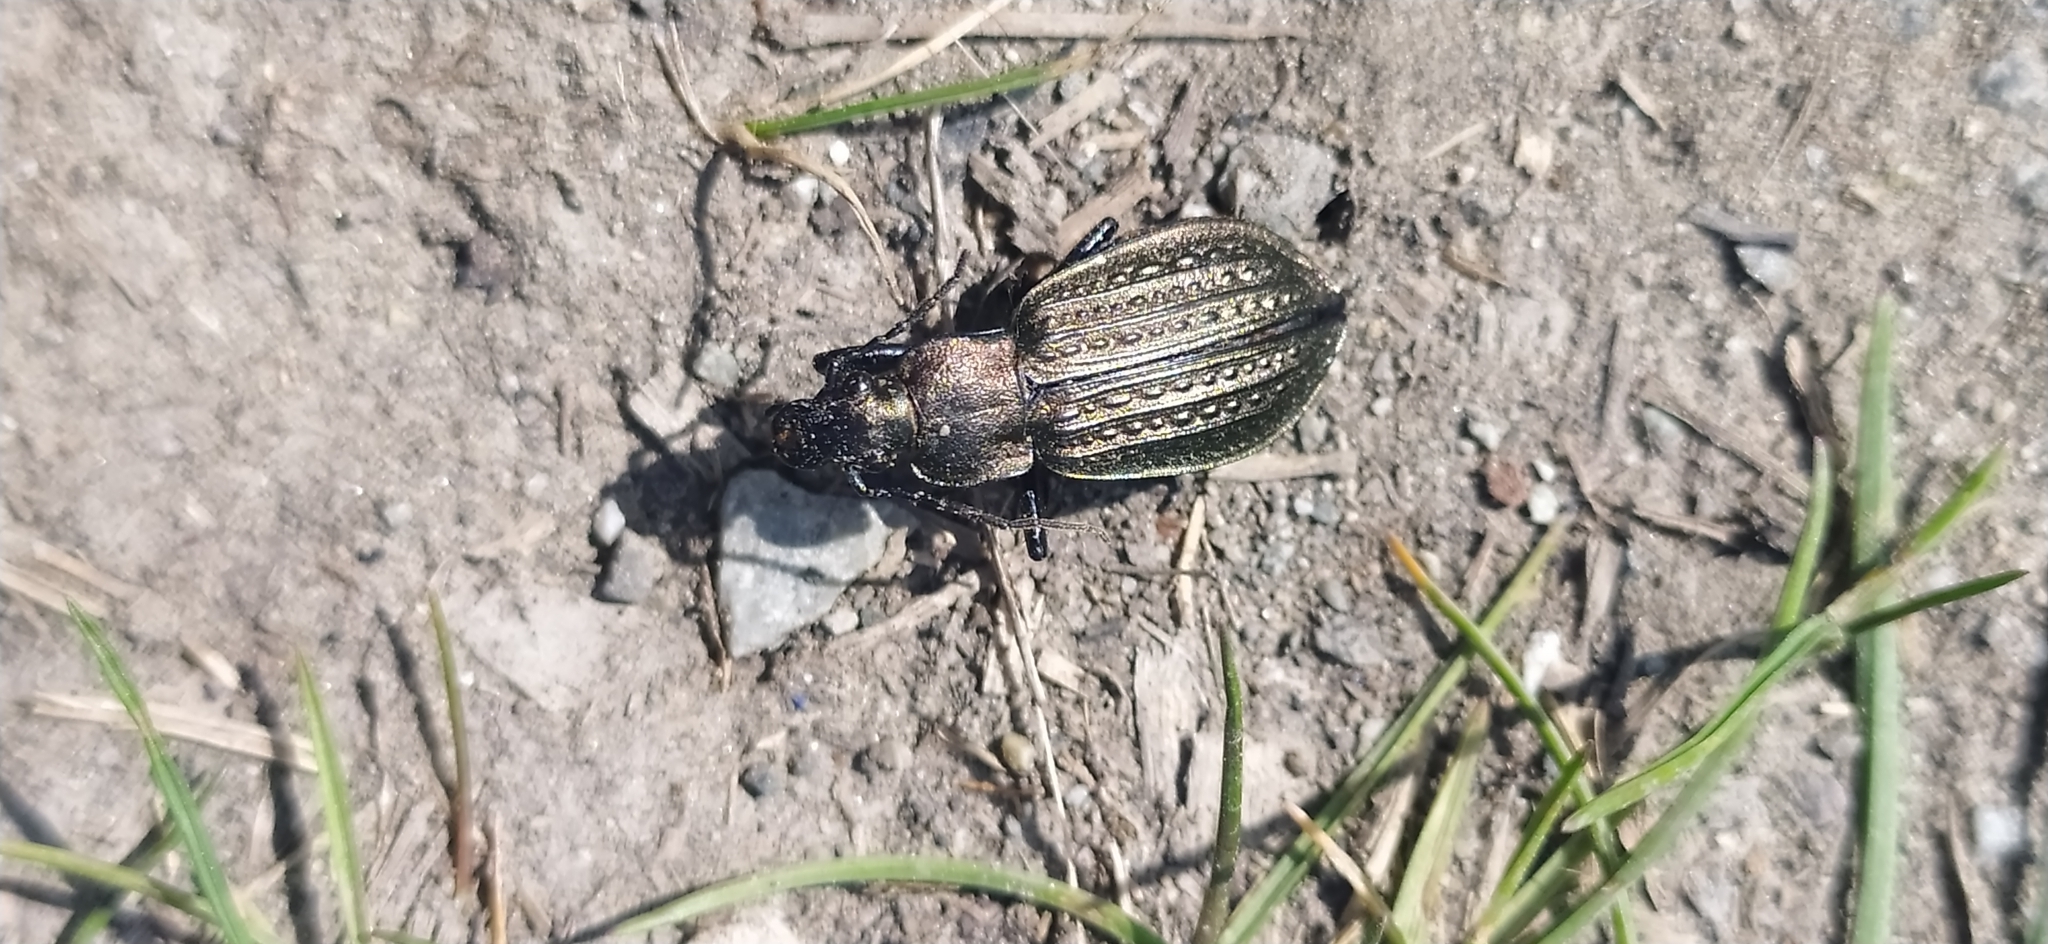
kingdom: Animalia
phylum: Arthropoda
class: Insecta
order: Coleoptera
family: Carabidae
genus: Carabus
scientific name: Carabus granulatus
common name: Granulate ground beetle
